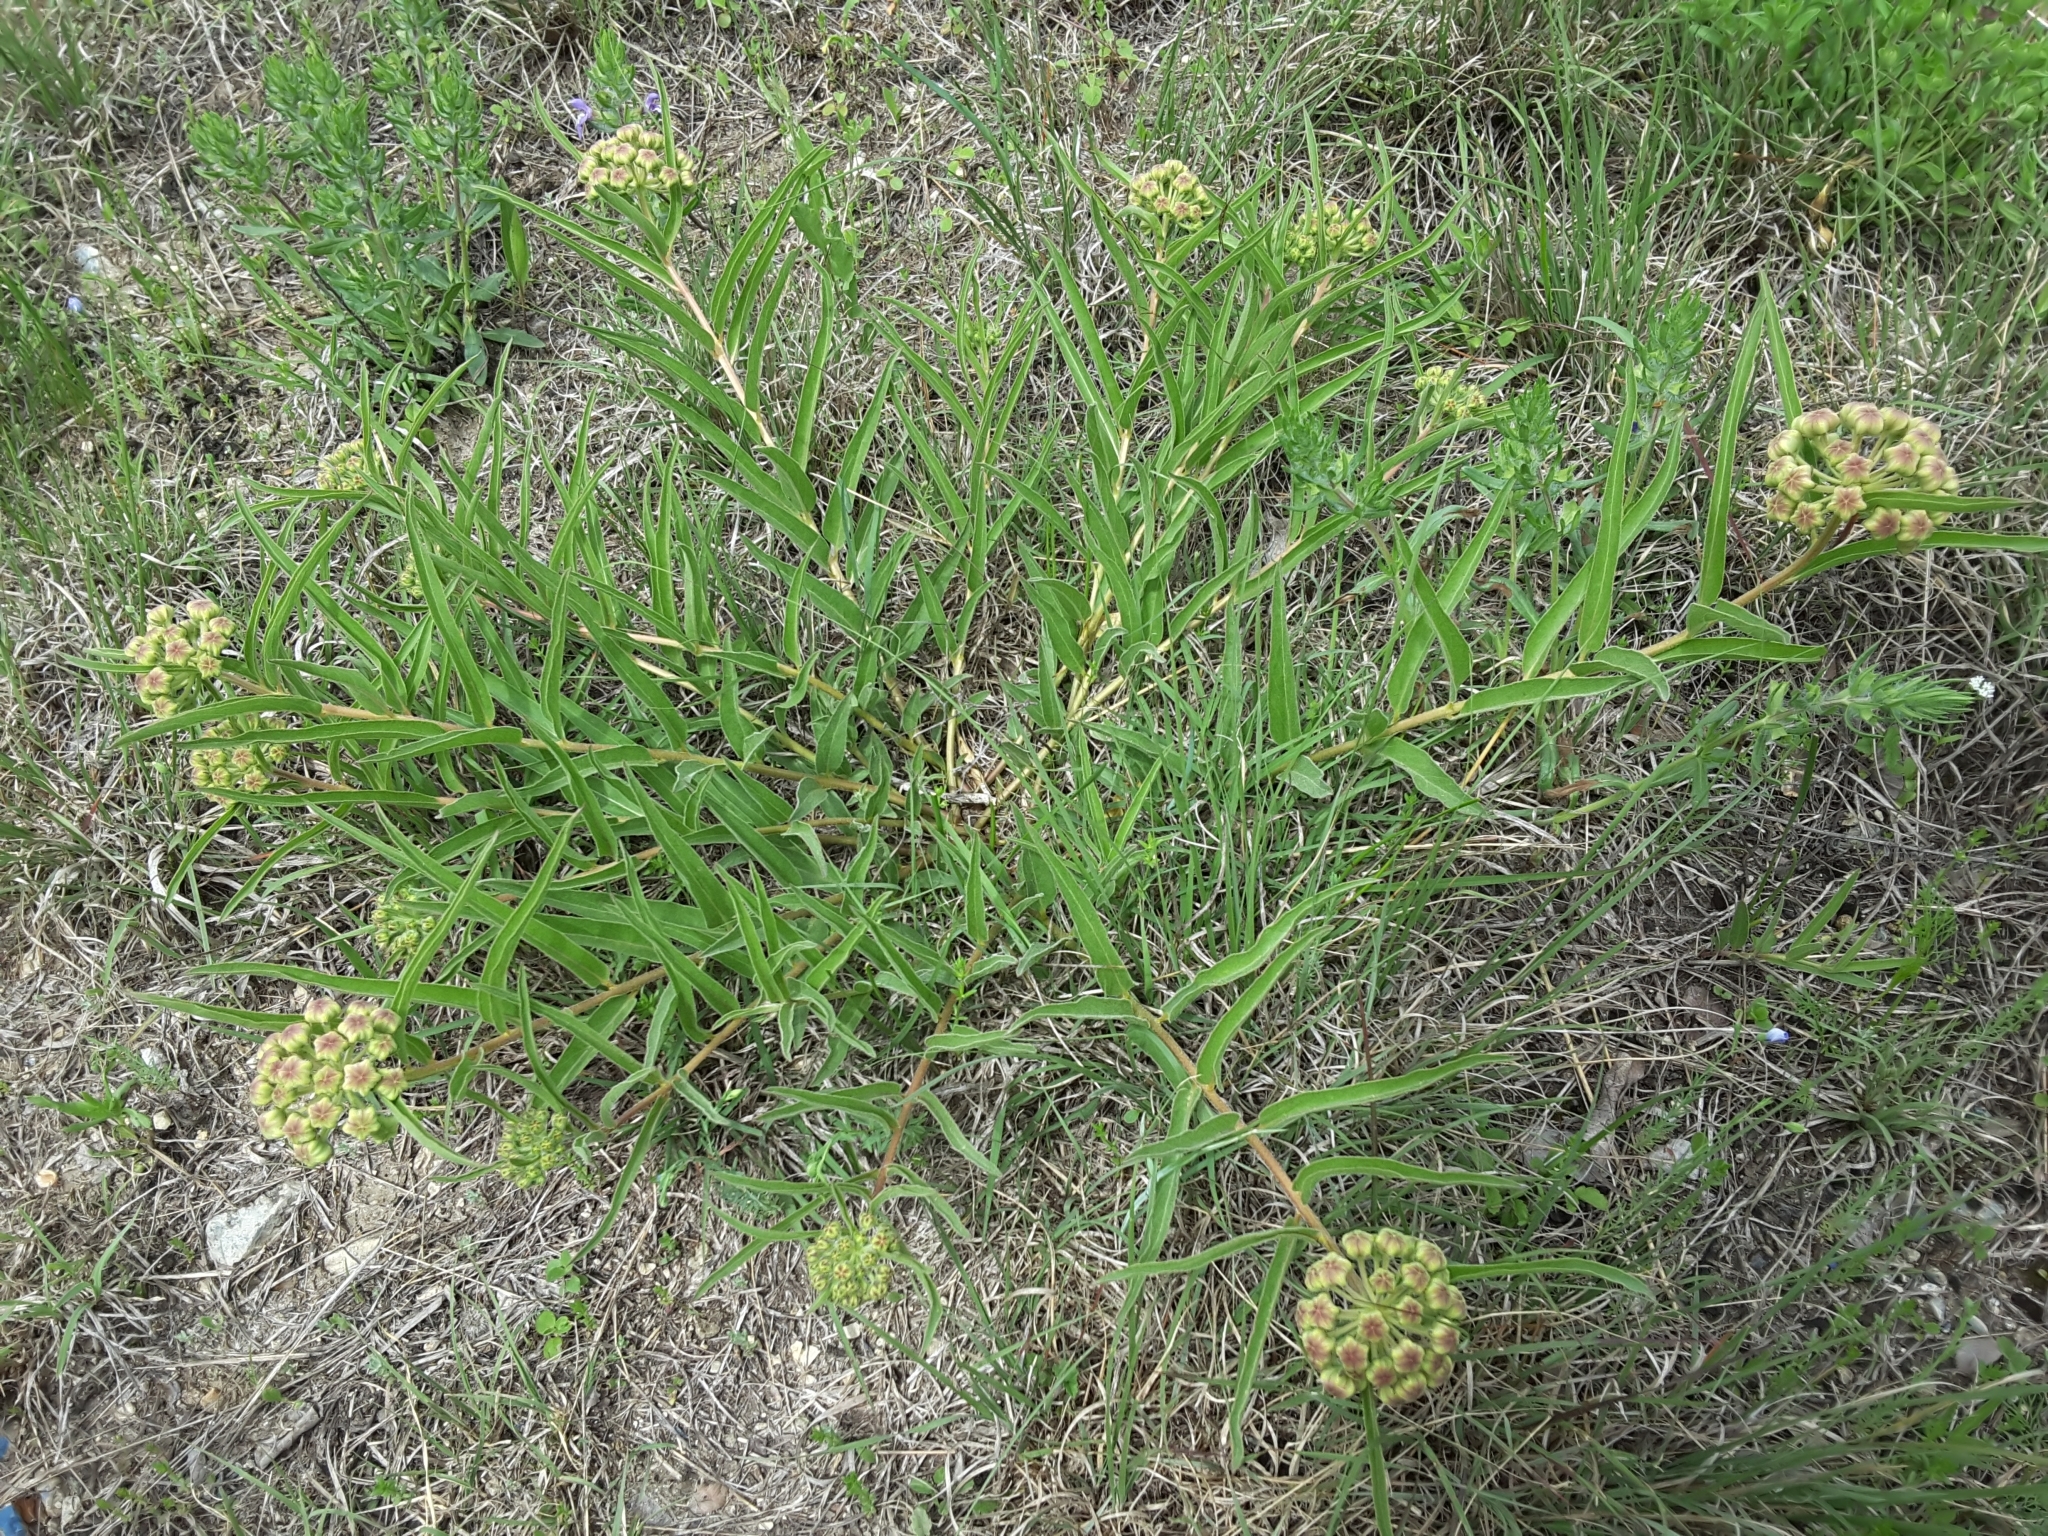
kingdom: Plantae
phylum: Tracheophyta
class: Magnoliopsida
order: Gentianales
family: Apocynaceae
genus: Asclepias
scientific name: Asclepias asperula
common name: Antelope horns
